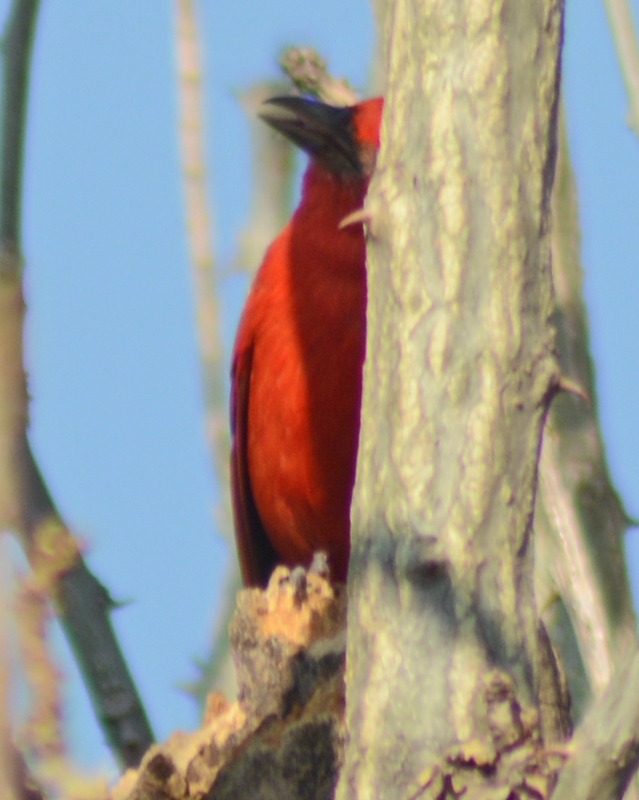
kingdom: Animalia
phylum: Chordata
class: Aves
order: Passeriformes
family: Cardinalidae
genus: Piranga
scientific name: Piranga flava
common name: Red tanager
